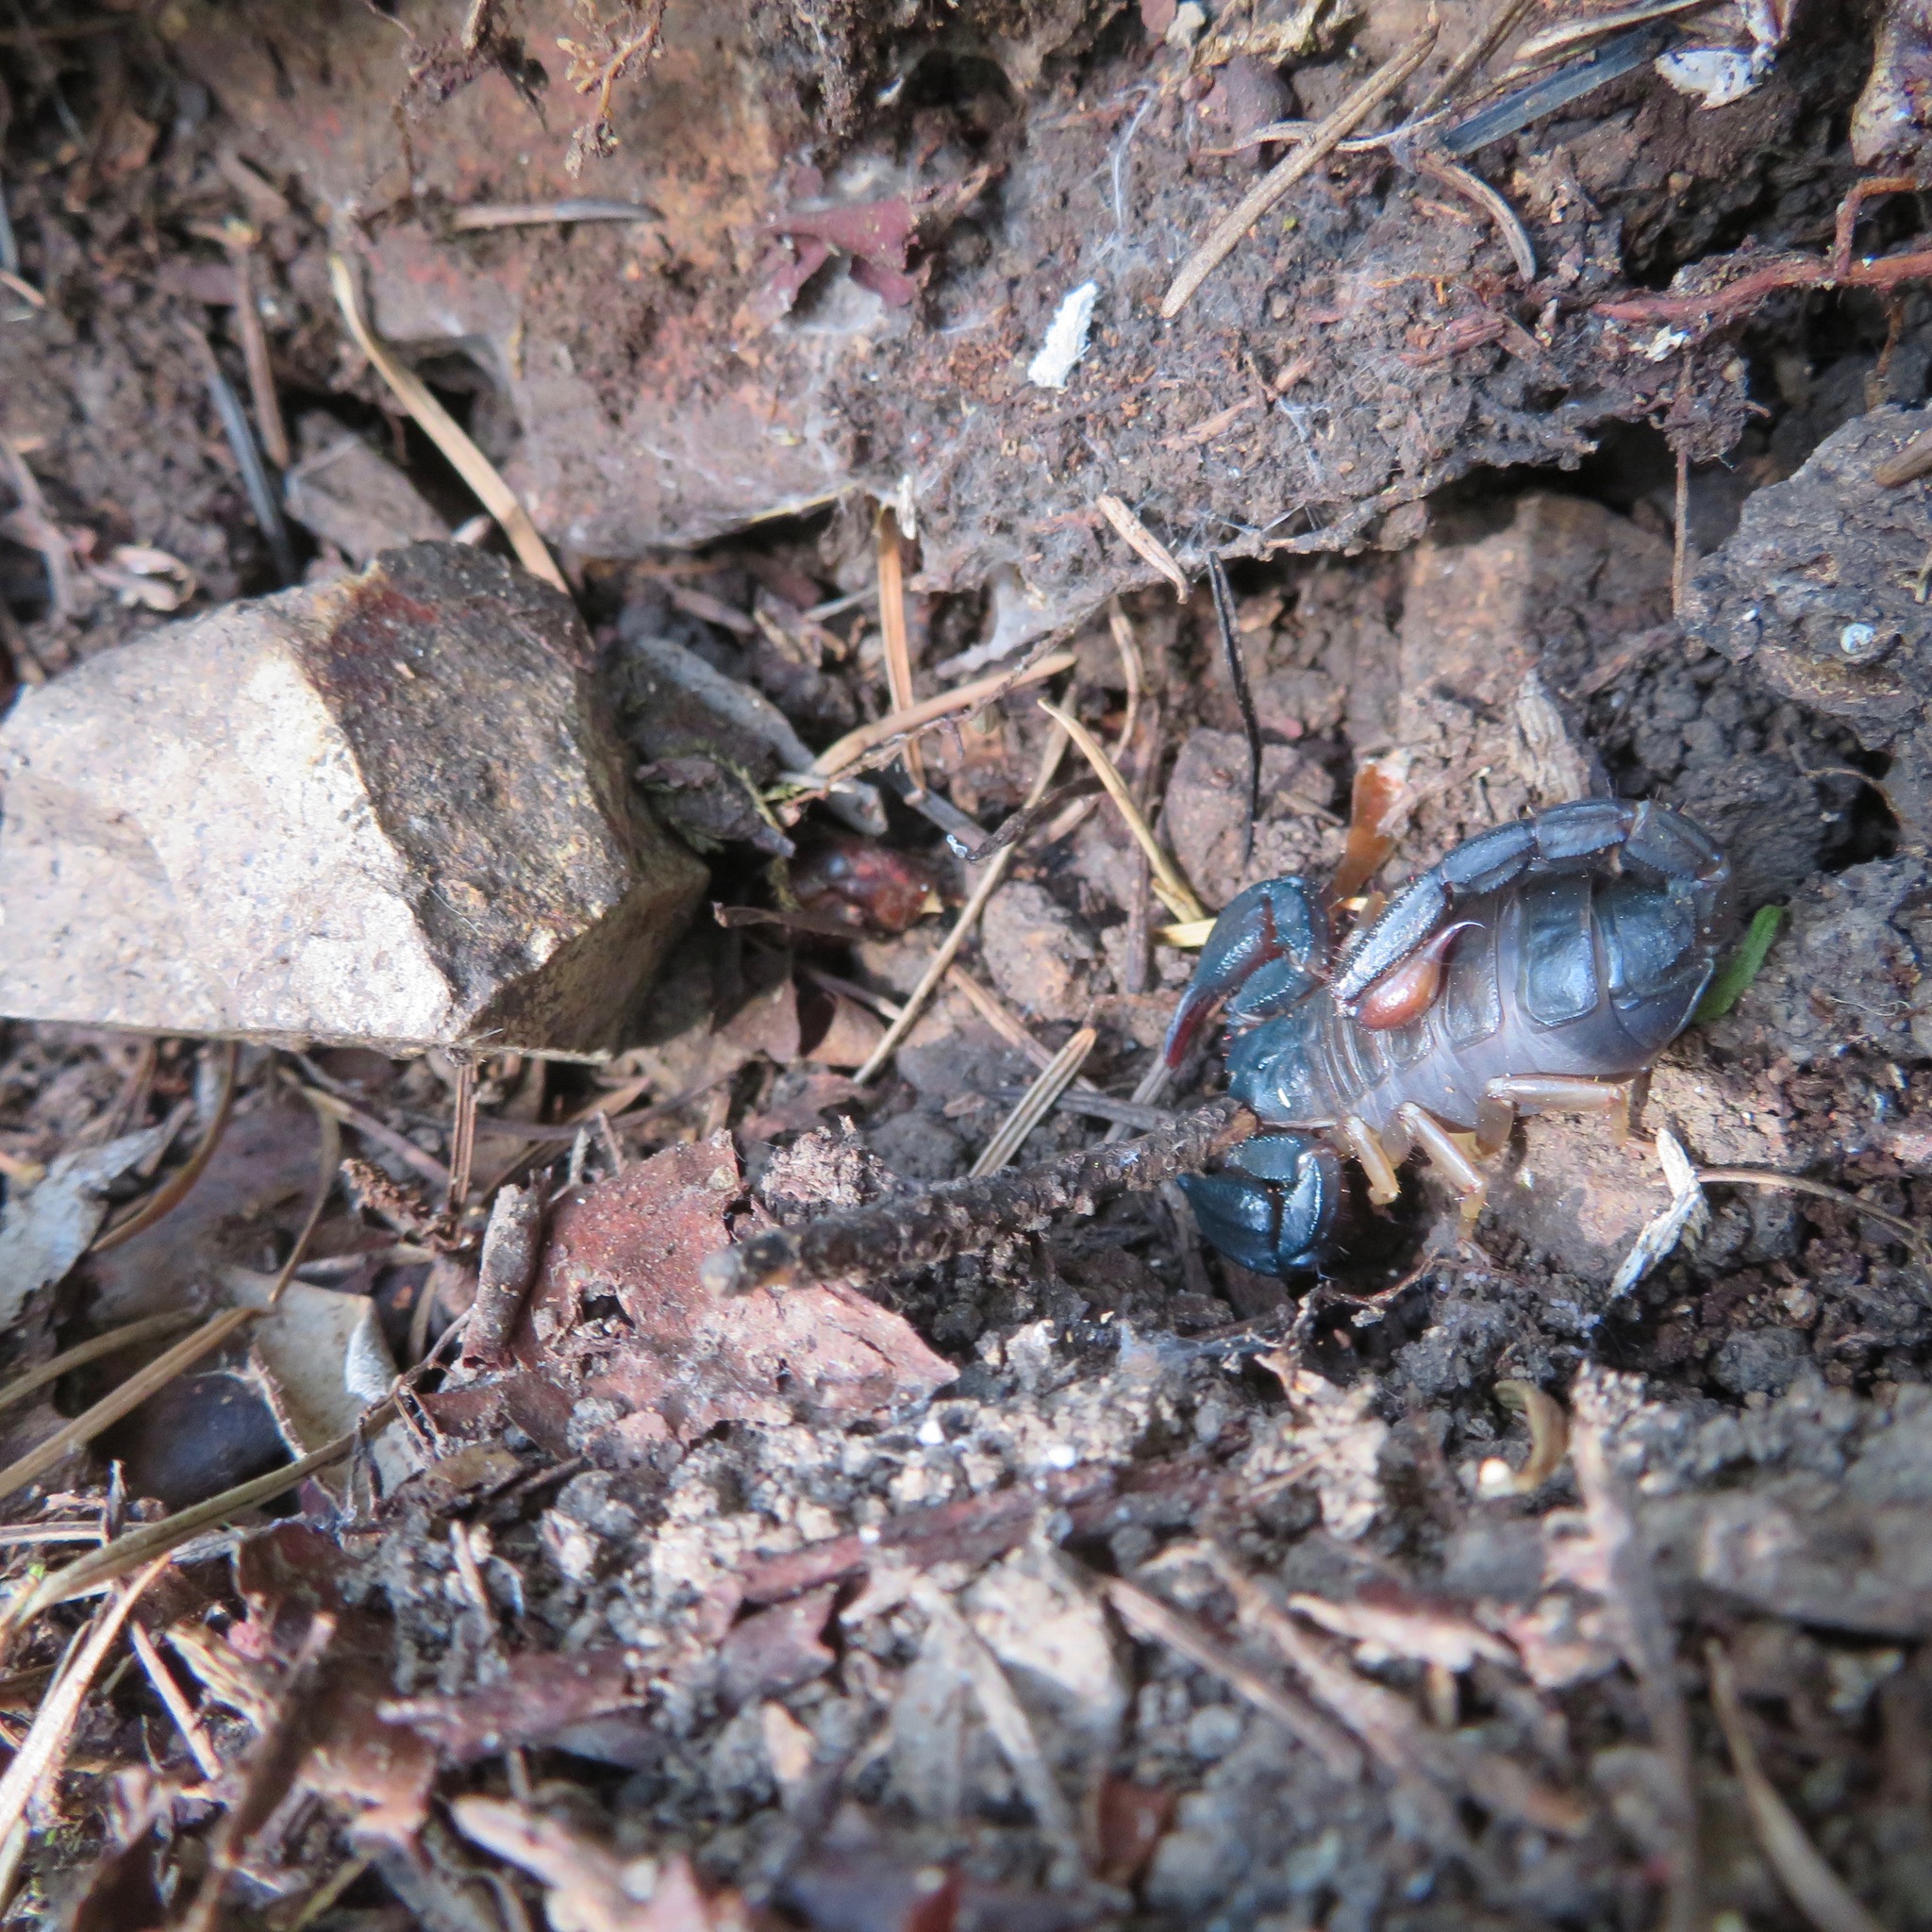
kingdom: Animalia
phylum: Arthropoda
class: Arachnida
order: Scorpiones
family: Chactidae
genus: Uroctonus
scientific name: Uroctonus mordax
